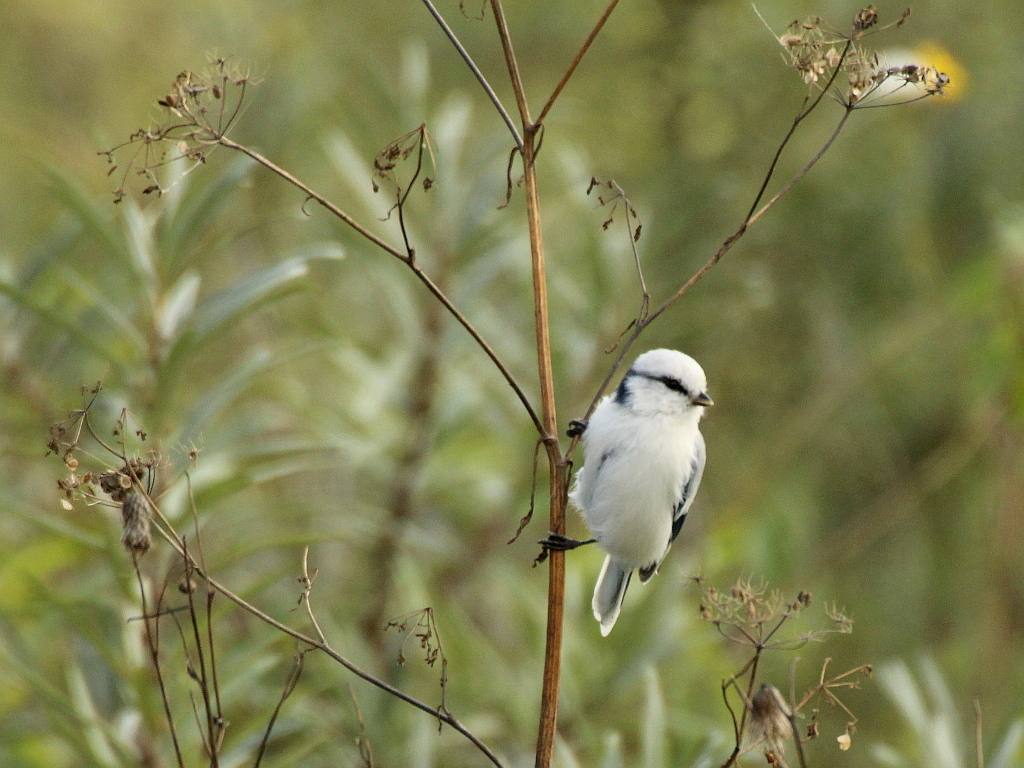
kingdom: Animalia
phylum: Chordata
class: Aves
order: Passeriformes
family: Paridae
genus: Cyanistes
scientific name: Cyanistes cyanus
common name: Azure tit
